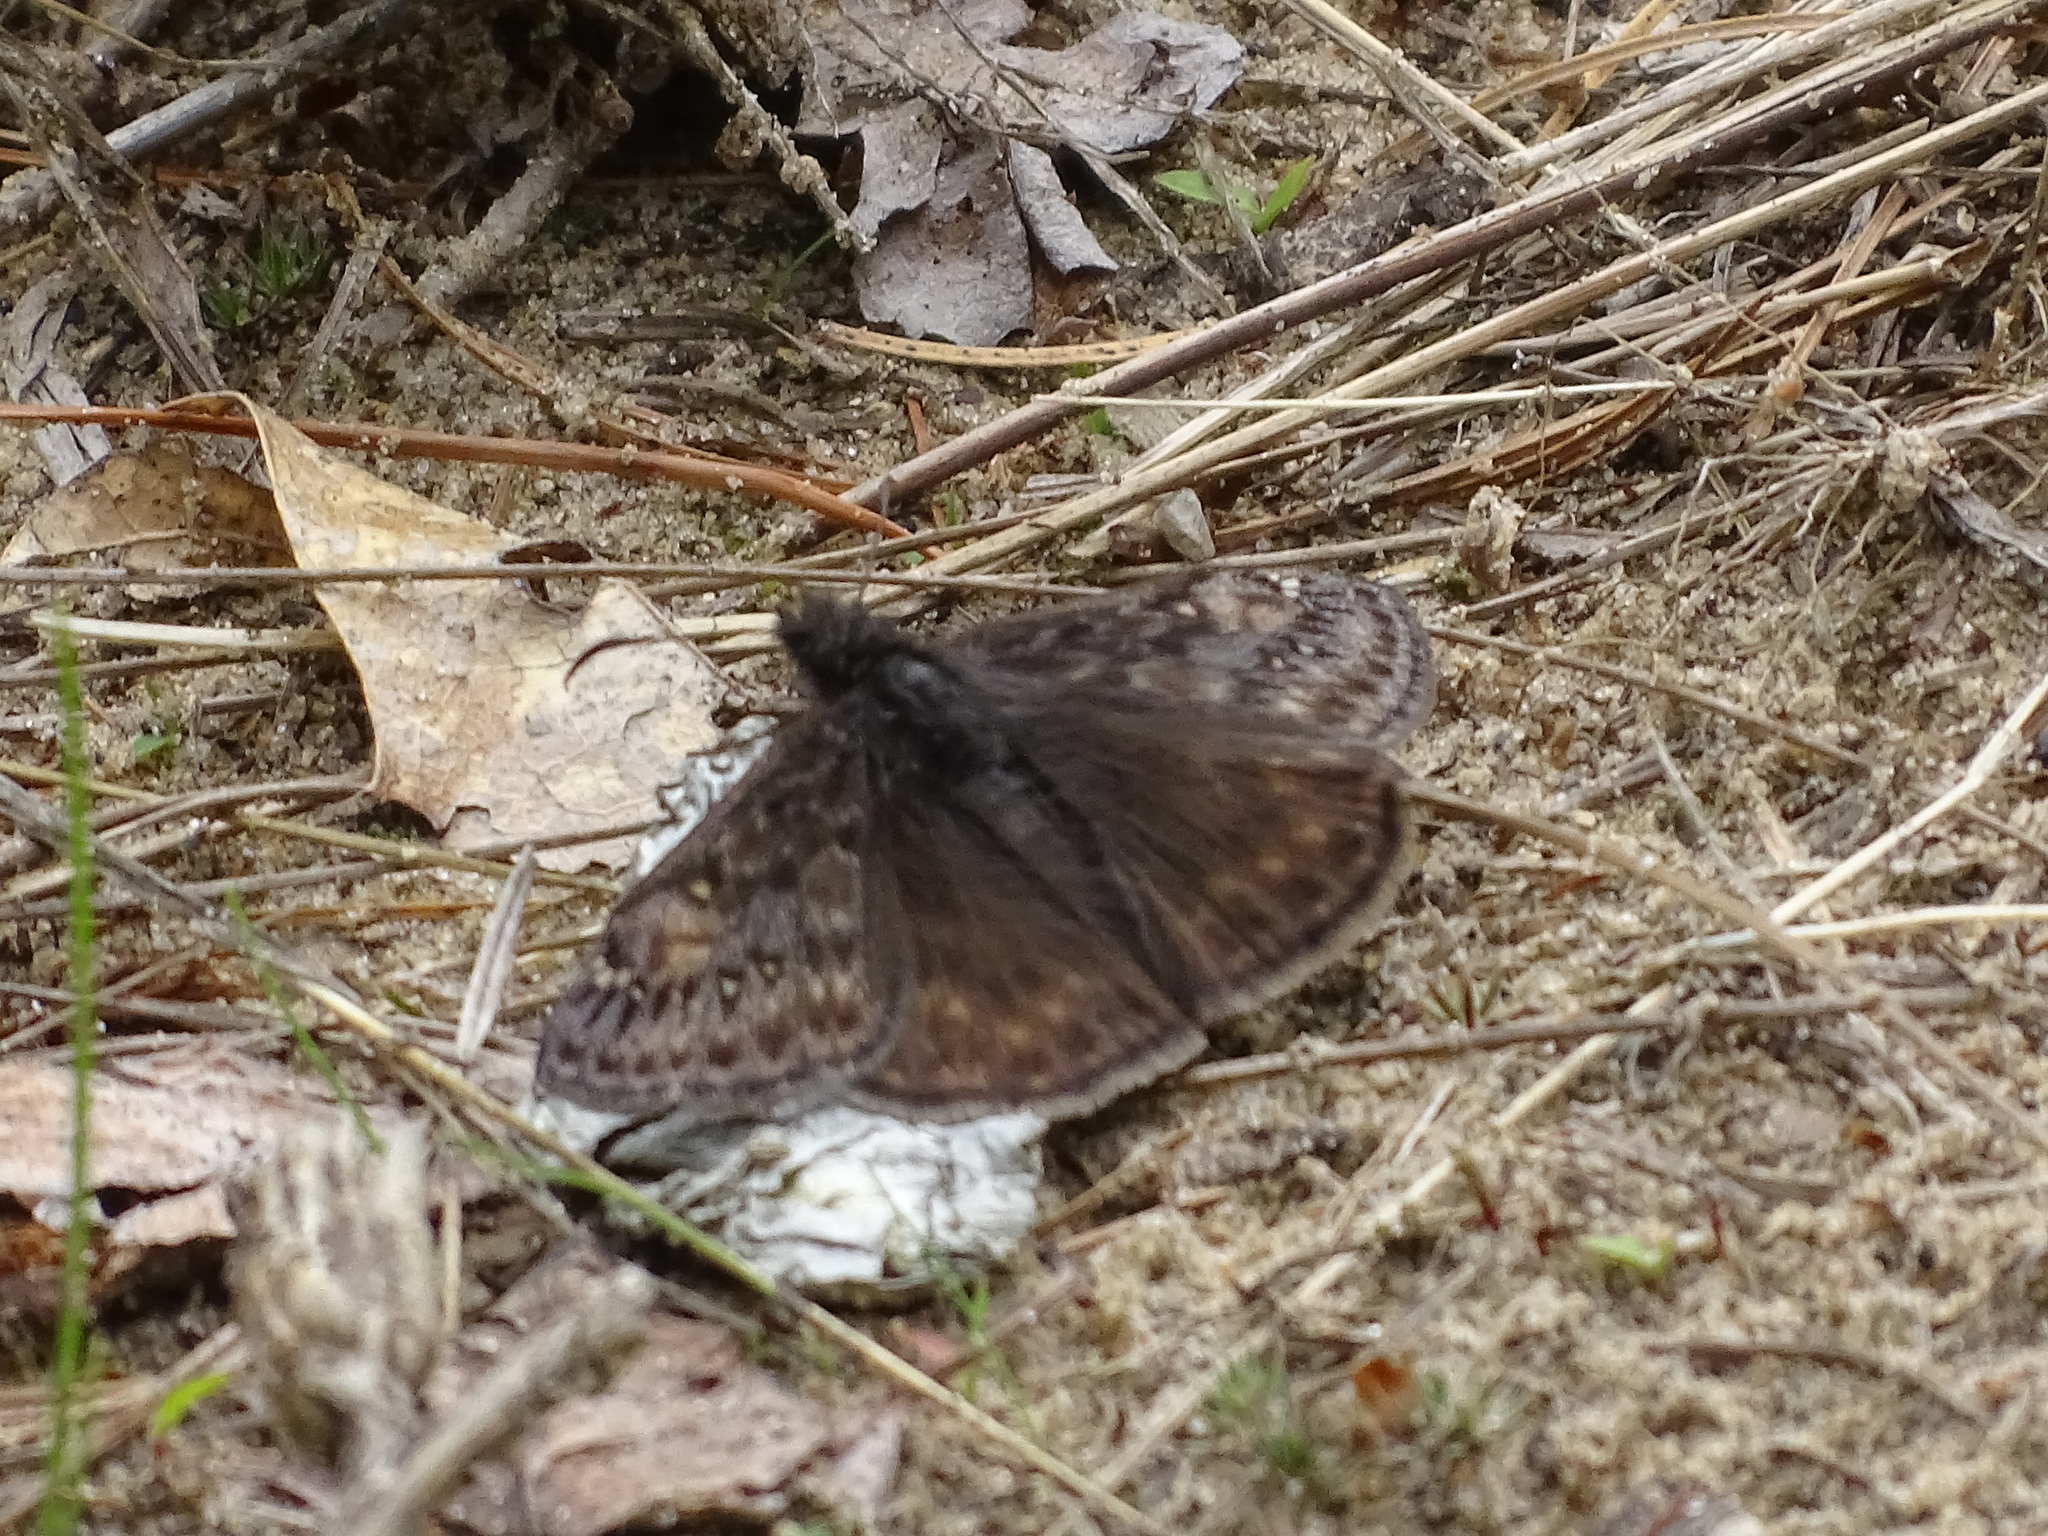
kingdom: Animalia
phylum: Arthropoda
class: Insecta
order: Lepidoptera
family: Hesperiidae
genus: Erynnis
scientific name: Erynnis juvenalis
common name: Juvenal's duskywing
